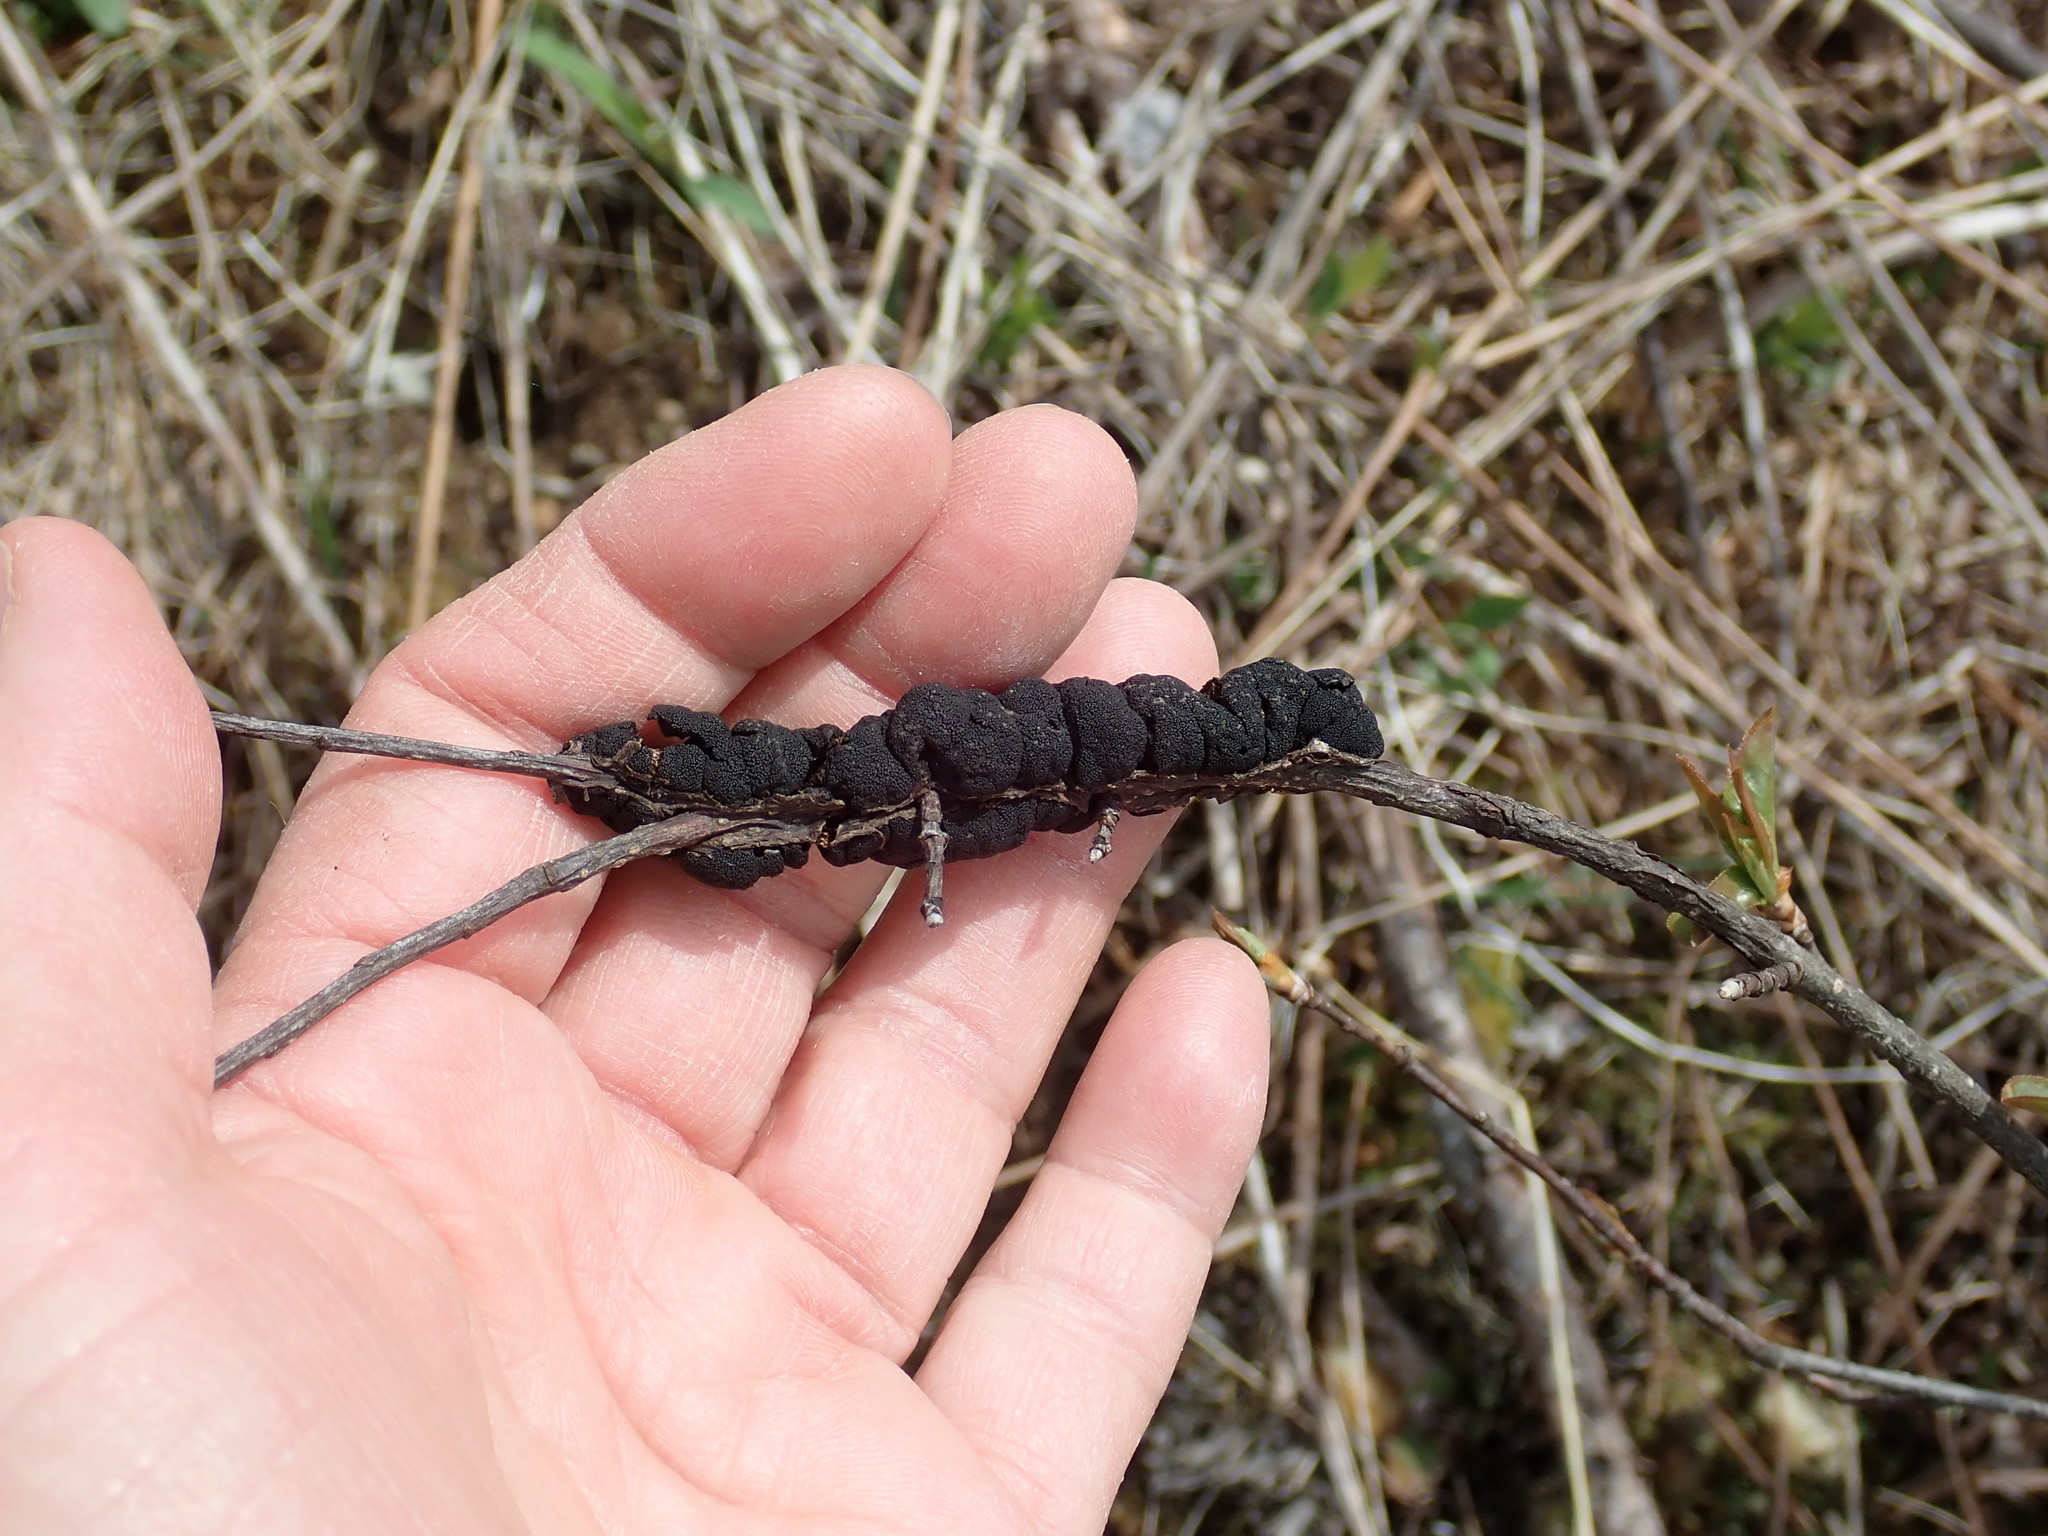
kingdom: Fungi
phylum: Ascomycota
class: Dothideomycetes
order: Venturiales
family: Venturiaceae
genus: Apiosporina
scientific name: Apiosporina morbosa
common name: Black knot
